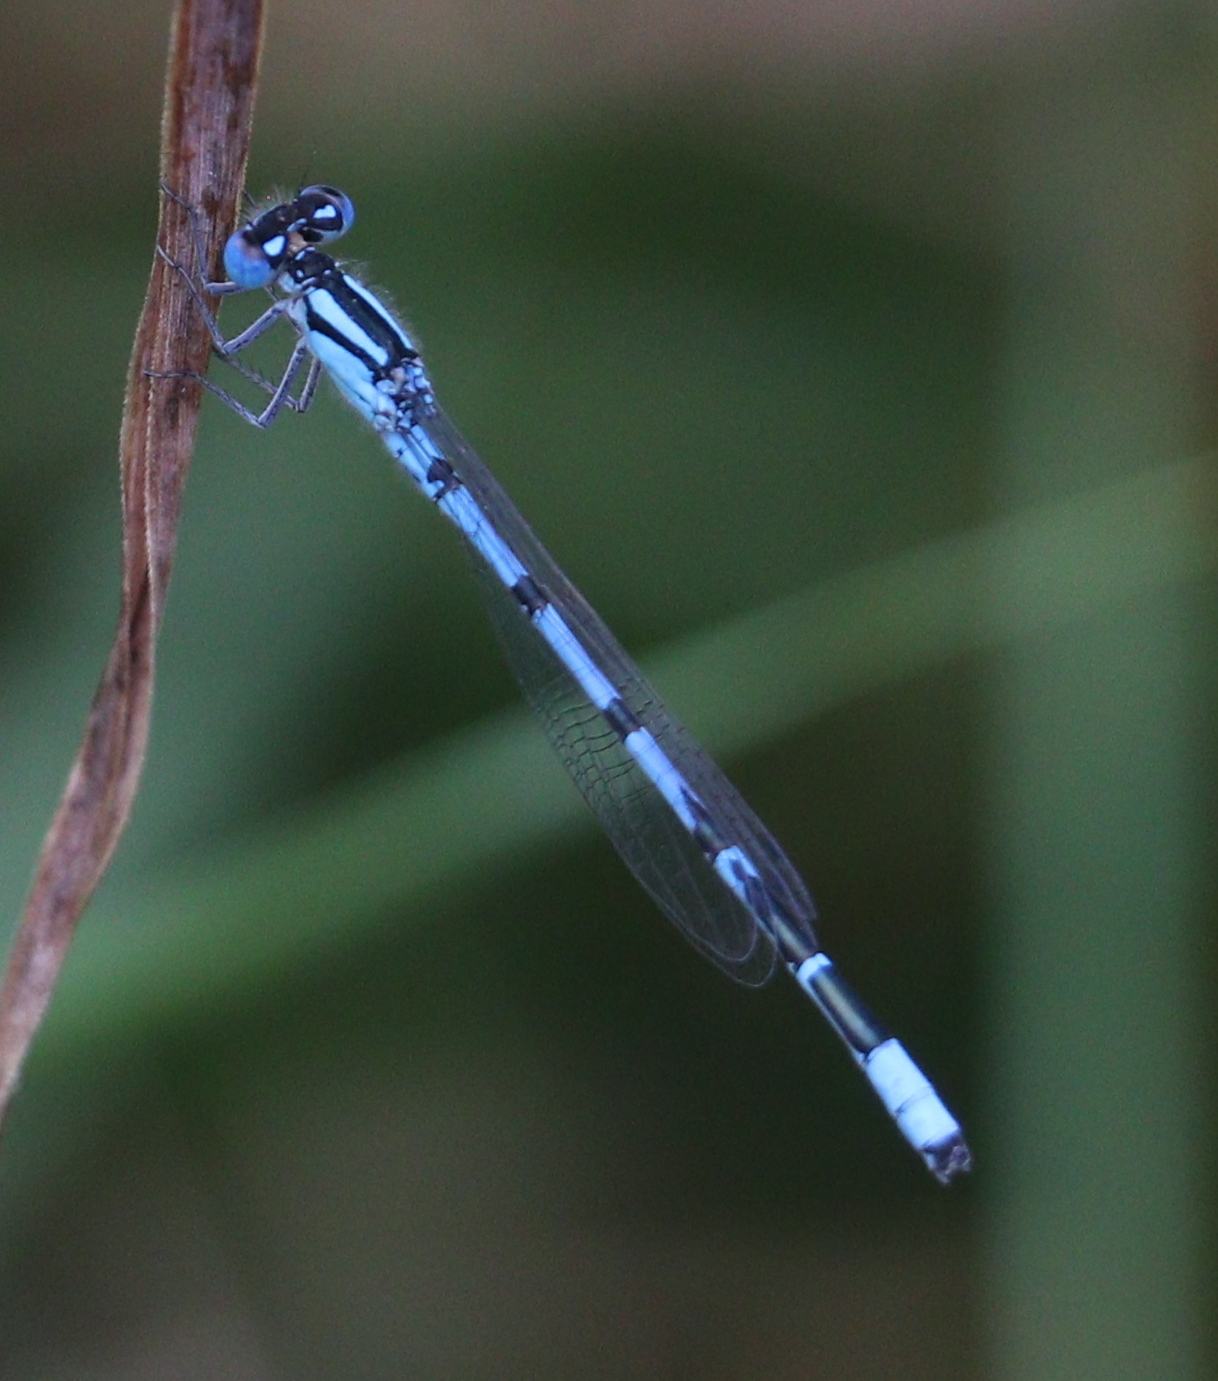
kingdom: Animalia
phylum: Arthropoda
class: Insecta
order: Odonata
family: Coenagrionidae
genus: Enallagma
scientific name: Enallagma cyathigerum
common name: Common blue damselfly
